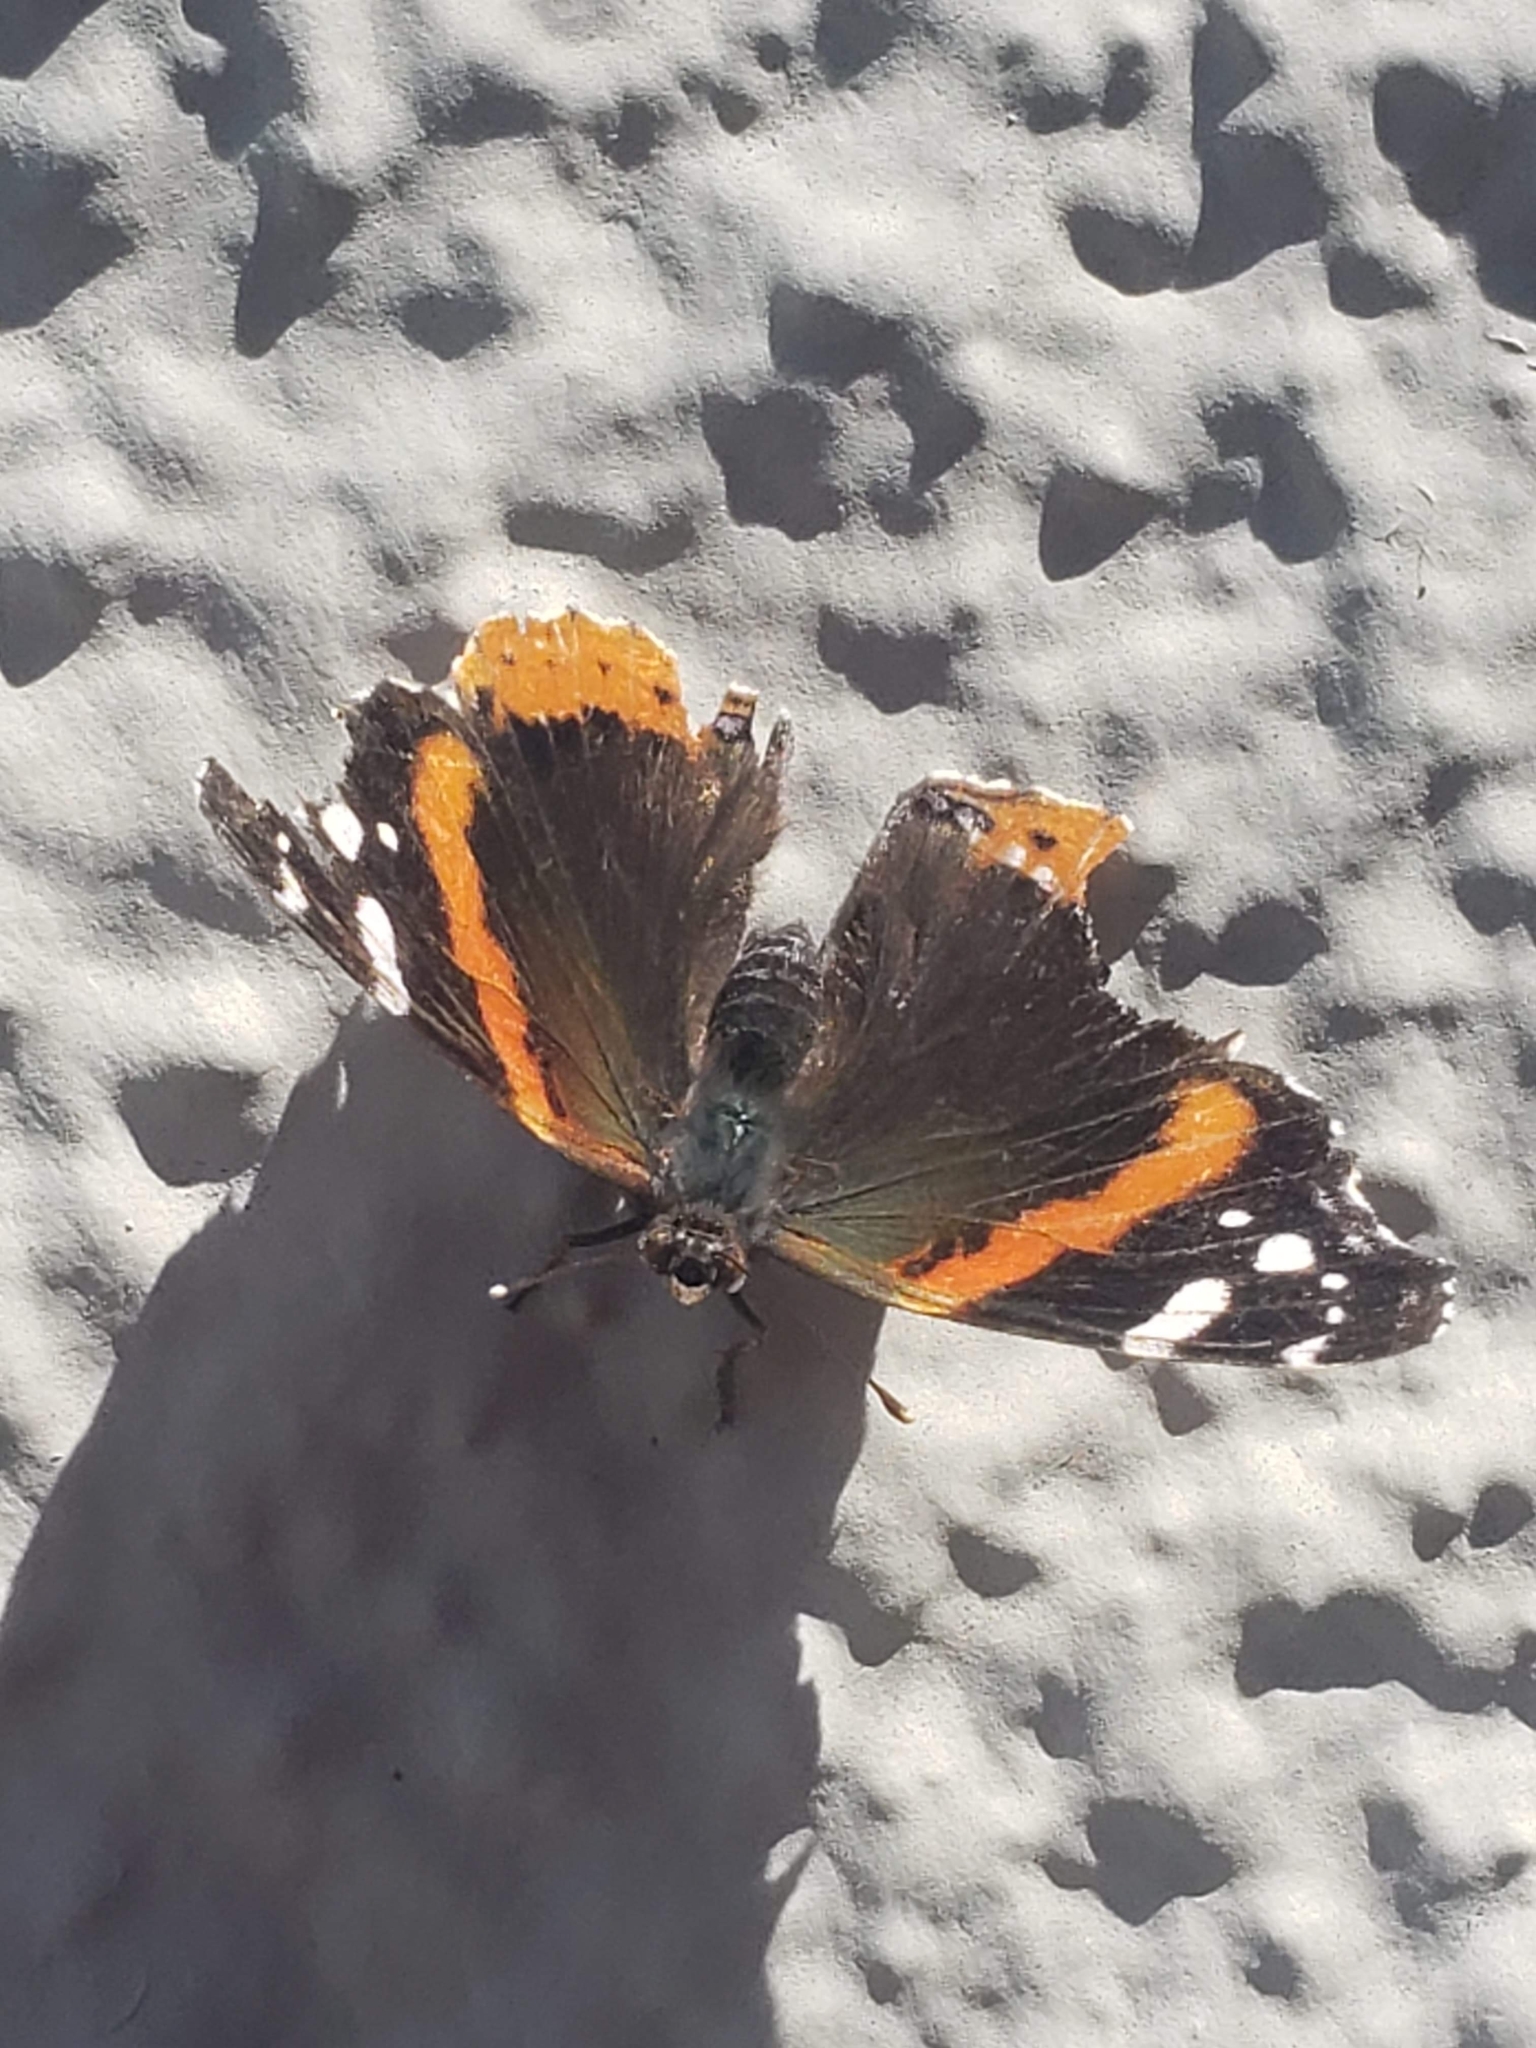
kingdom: Animalia
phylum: Arthropoda
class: Insecta
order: Lepidoptera
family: Nymphalidae
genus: Vanessa
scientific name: Vanessa atalanta
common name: Red admiral
